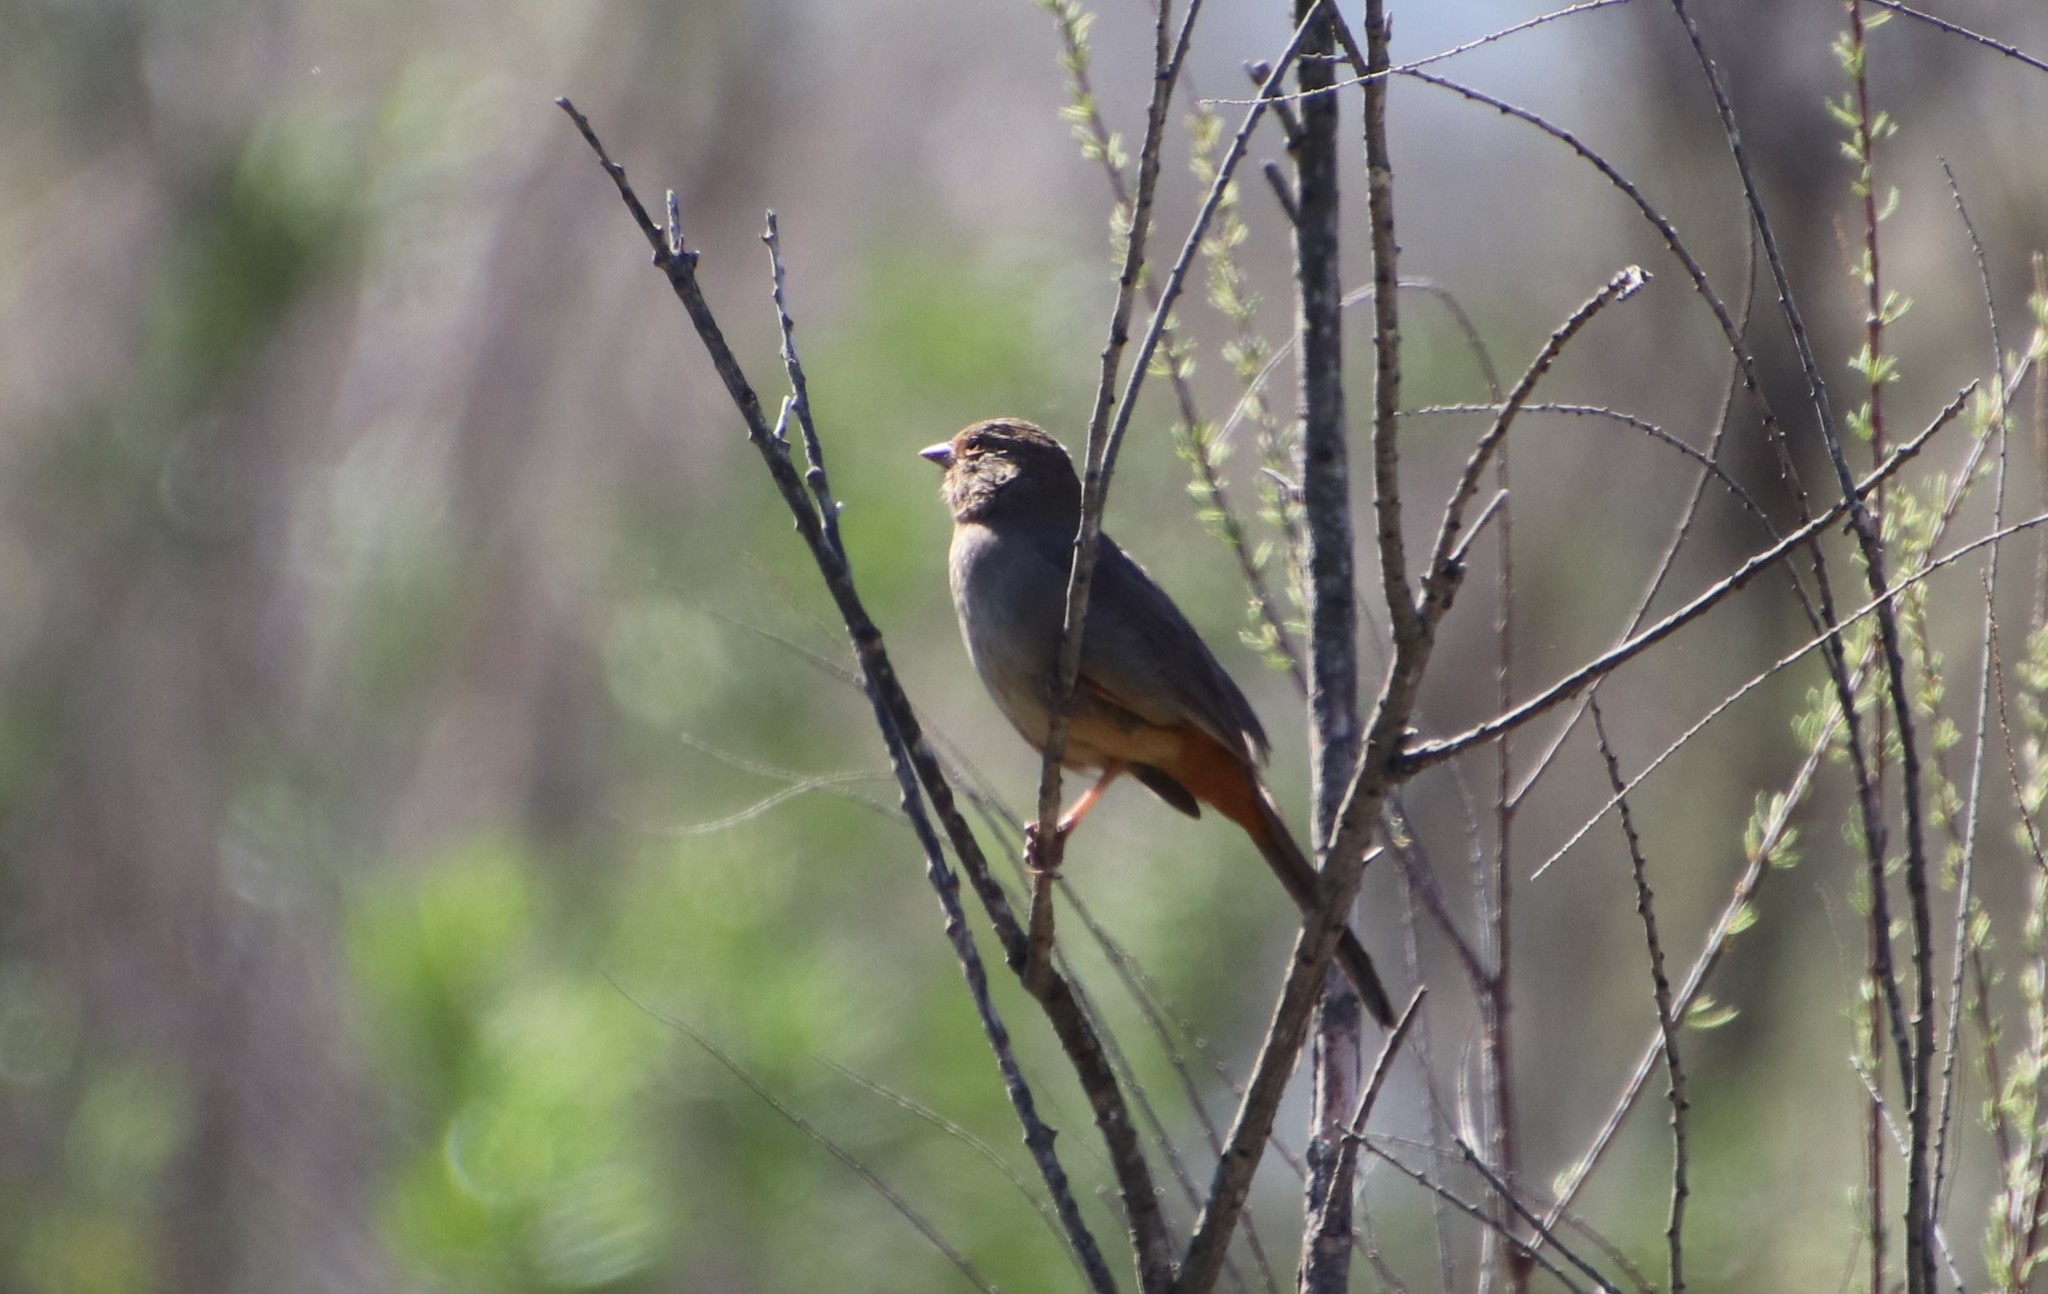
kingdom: Animalia
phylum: Chordata
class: Aves
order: Passeriformes
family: Passerellidae
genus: Melozone
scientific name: Melozone crissalis
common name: California towhee
